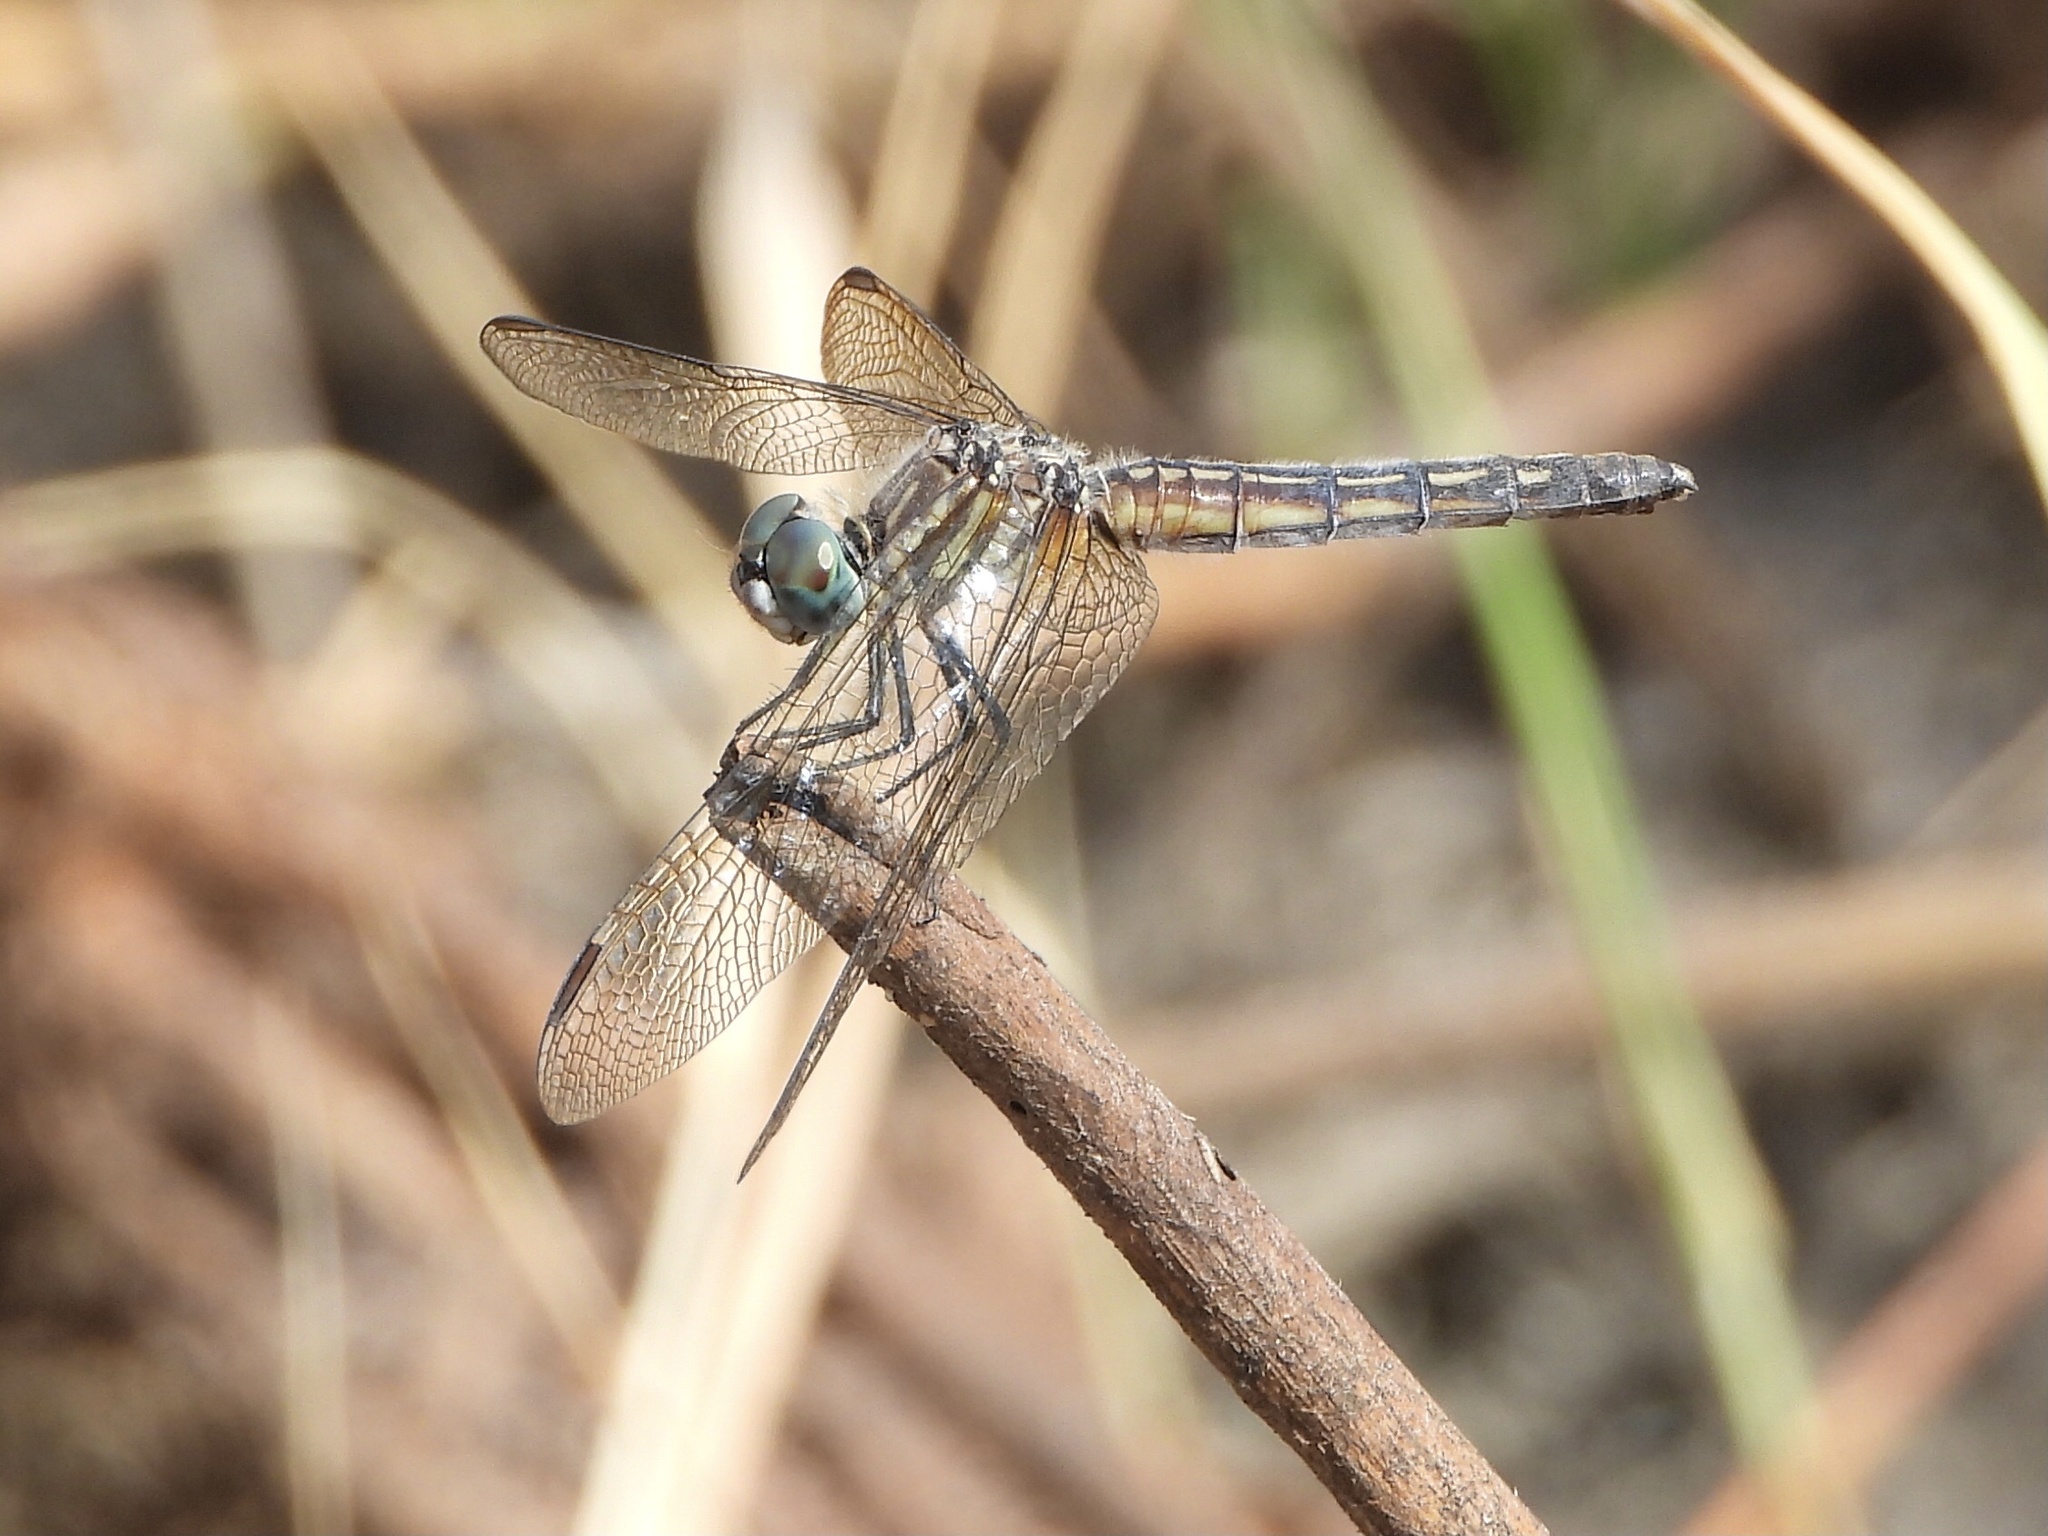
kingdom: Animalia
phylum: Arthropoda
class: Insecta
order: Odonata
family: Libellulidae
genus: Pachydiplax
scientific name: Pachydiplax longipennis
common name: Blue dasher
